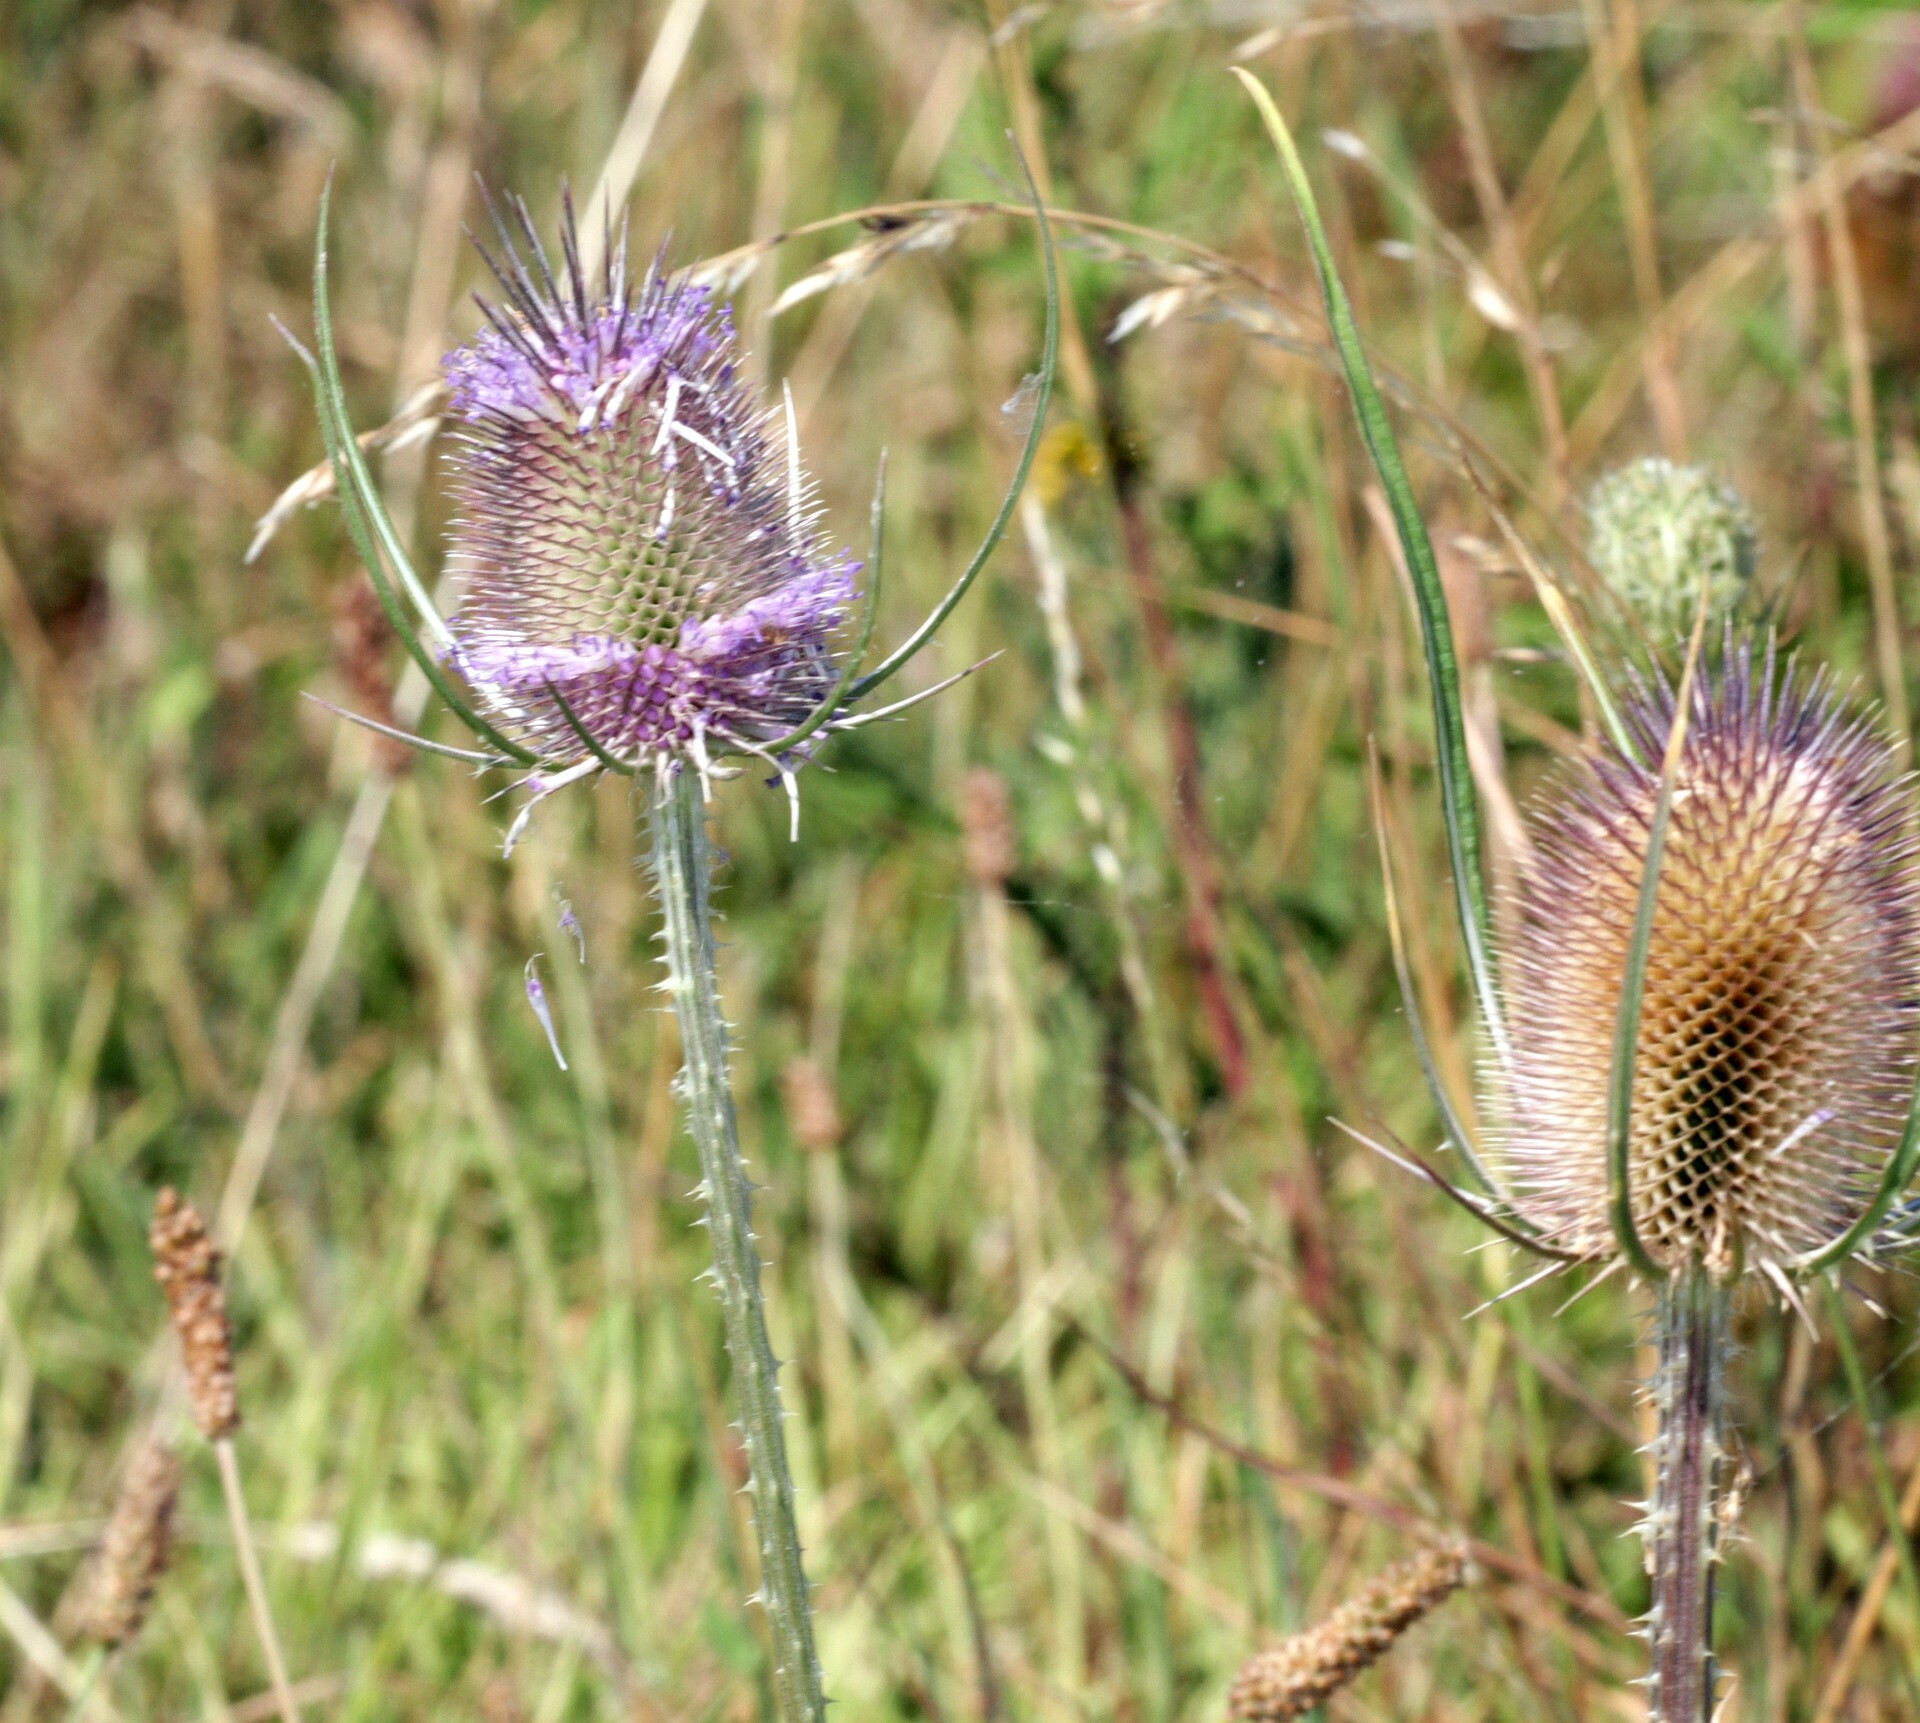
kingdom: Plantae
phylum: Tracheophyta
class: Magnoliopsida
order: Dipsacales
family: Caprifoliaceae
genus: Dipsacus
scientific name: Dipsacus fullonum
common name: Teasel
